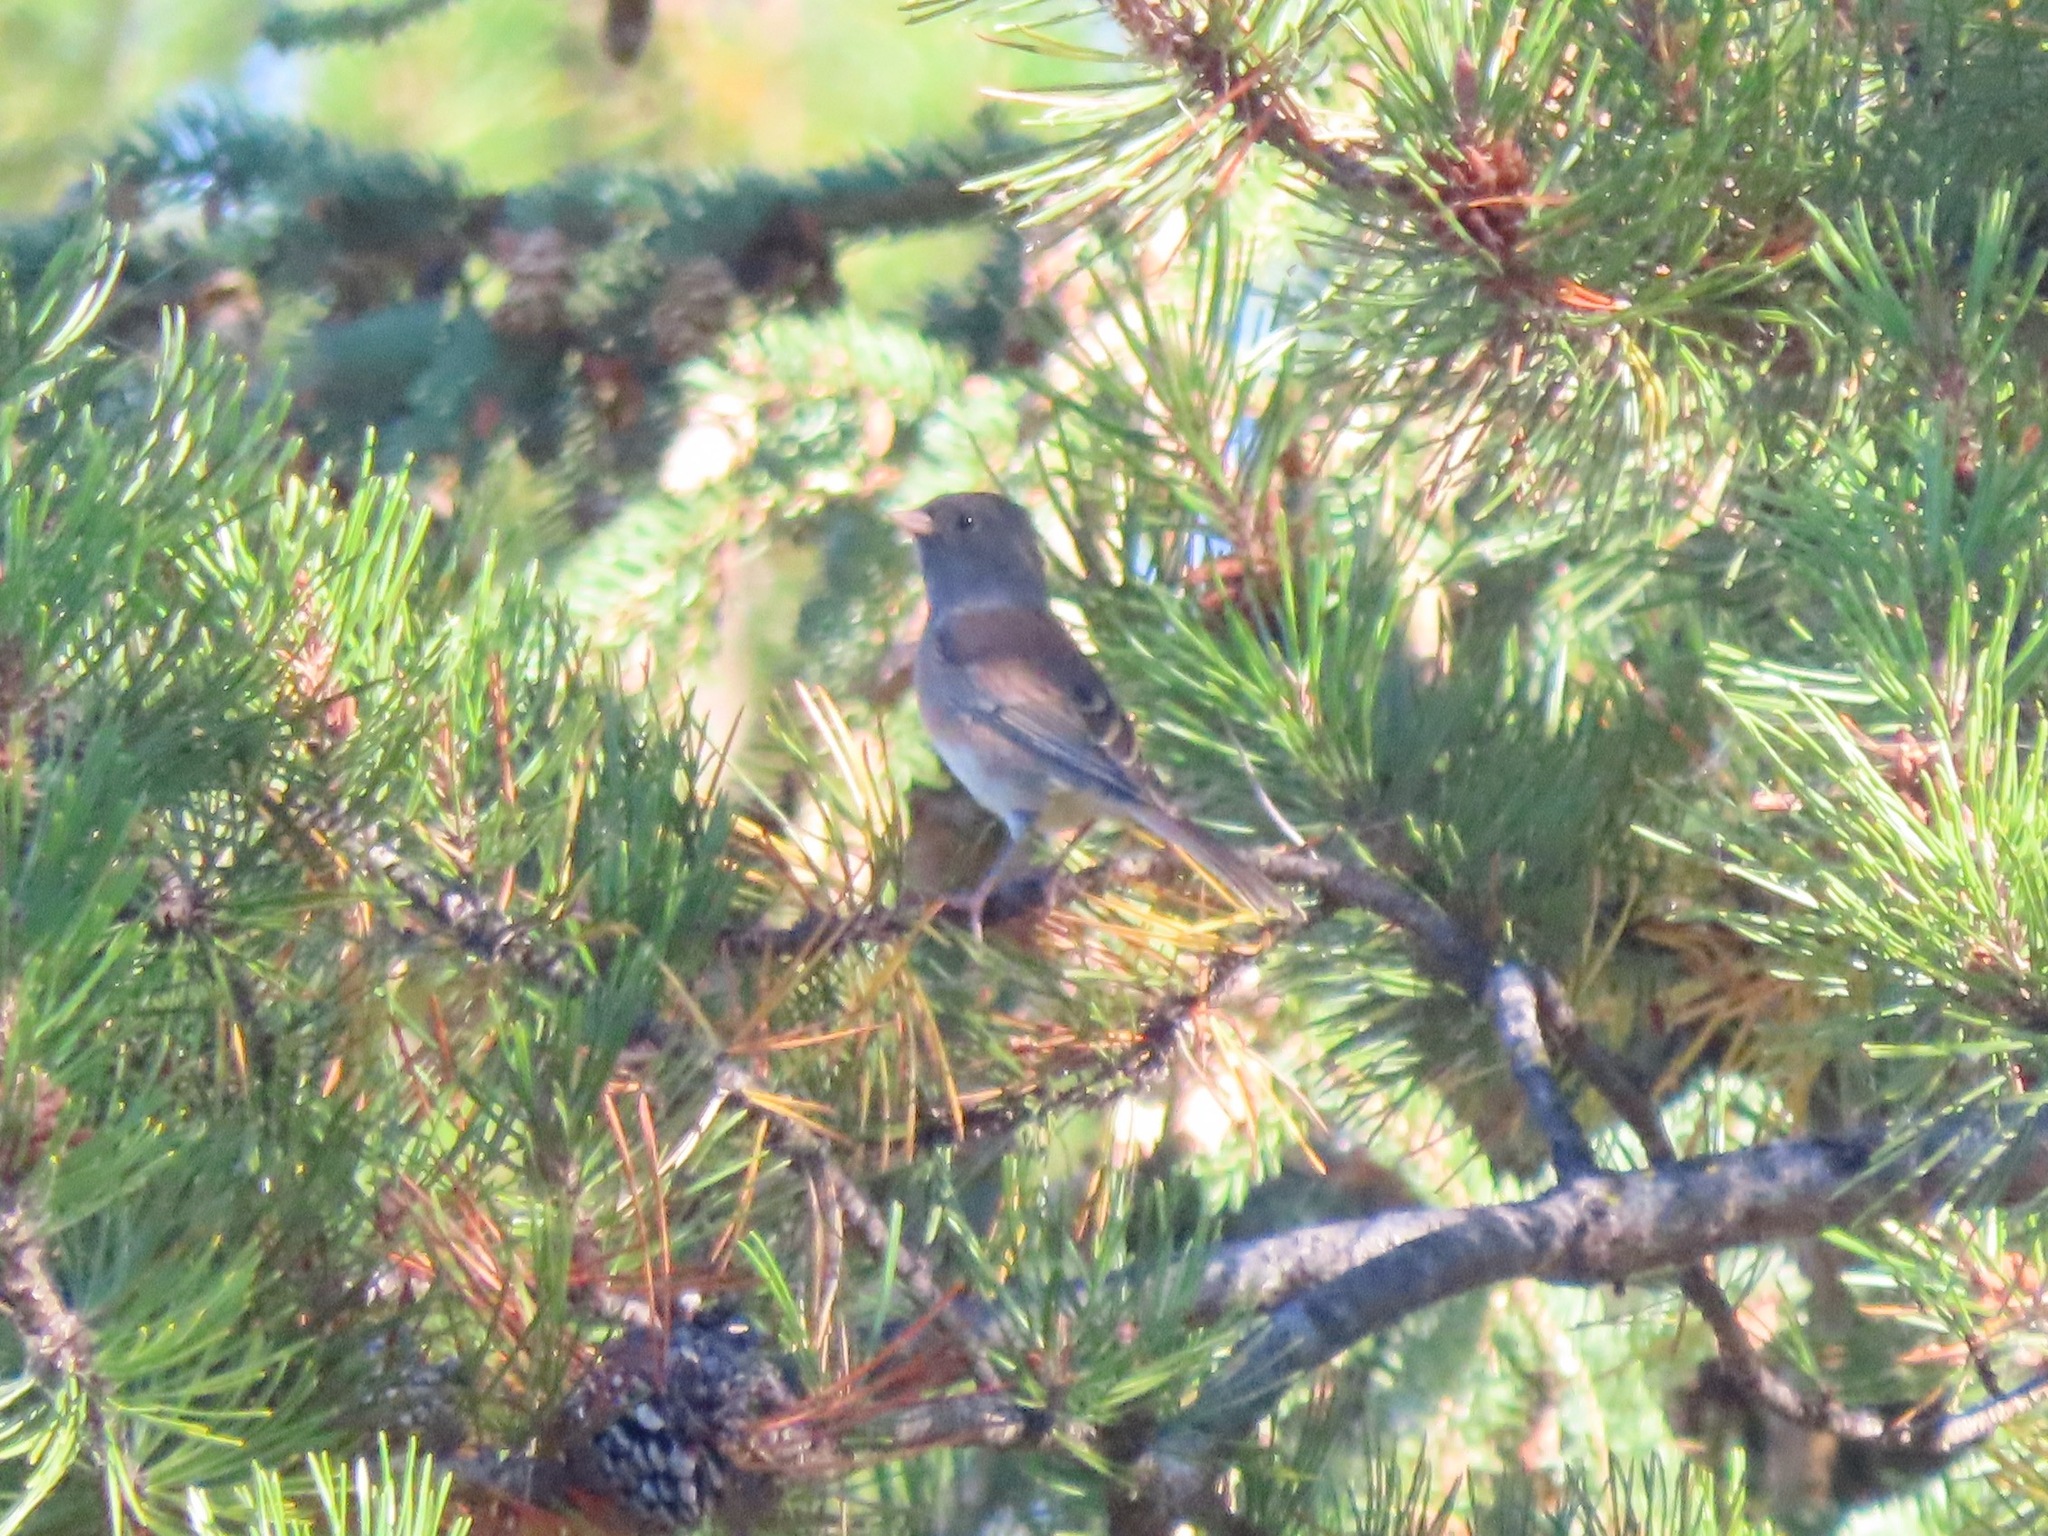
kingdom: Animalia
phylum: Chordata
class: Aves
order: Passeriformes
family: Passerellidae
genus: Junco
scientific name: Junco hyemalis
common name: Dark-eyed junco
